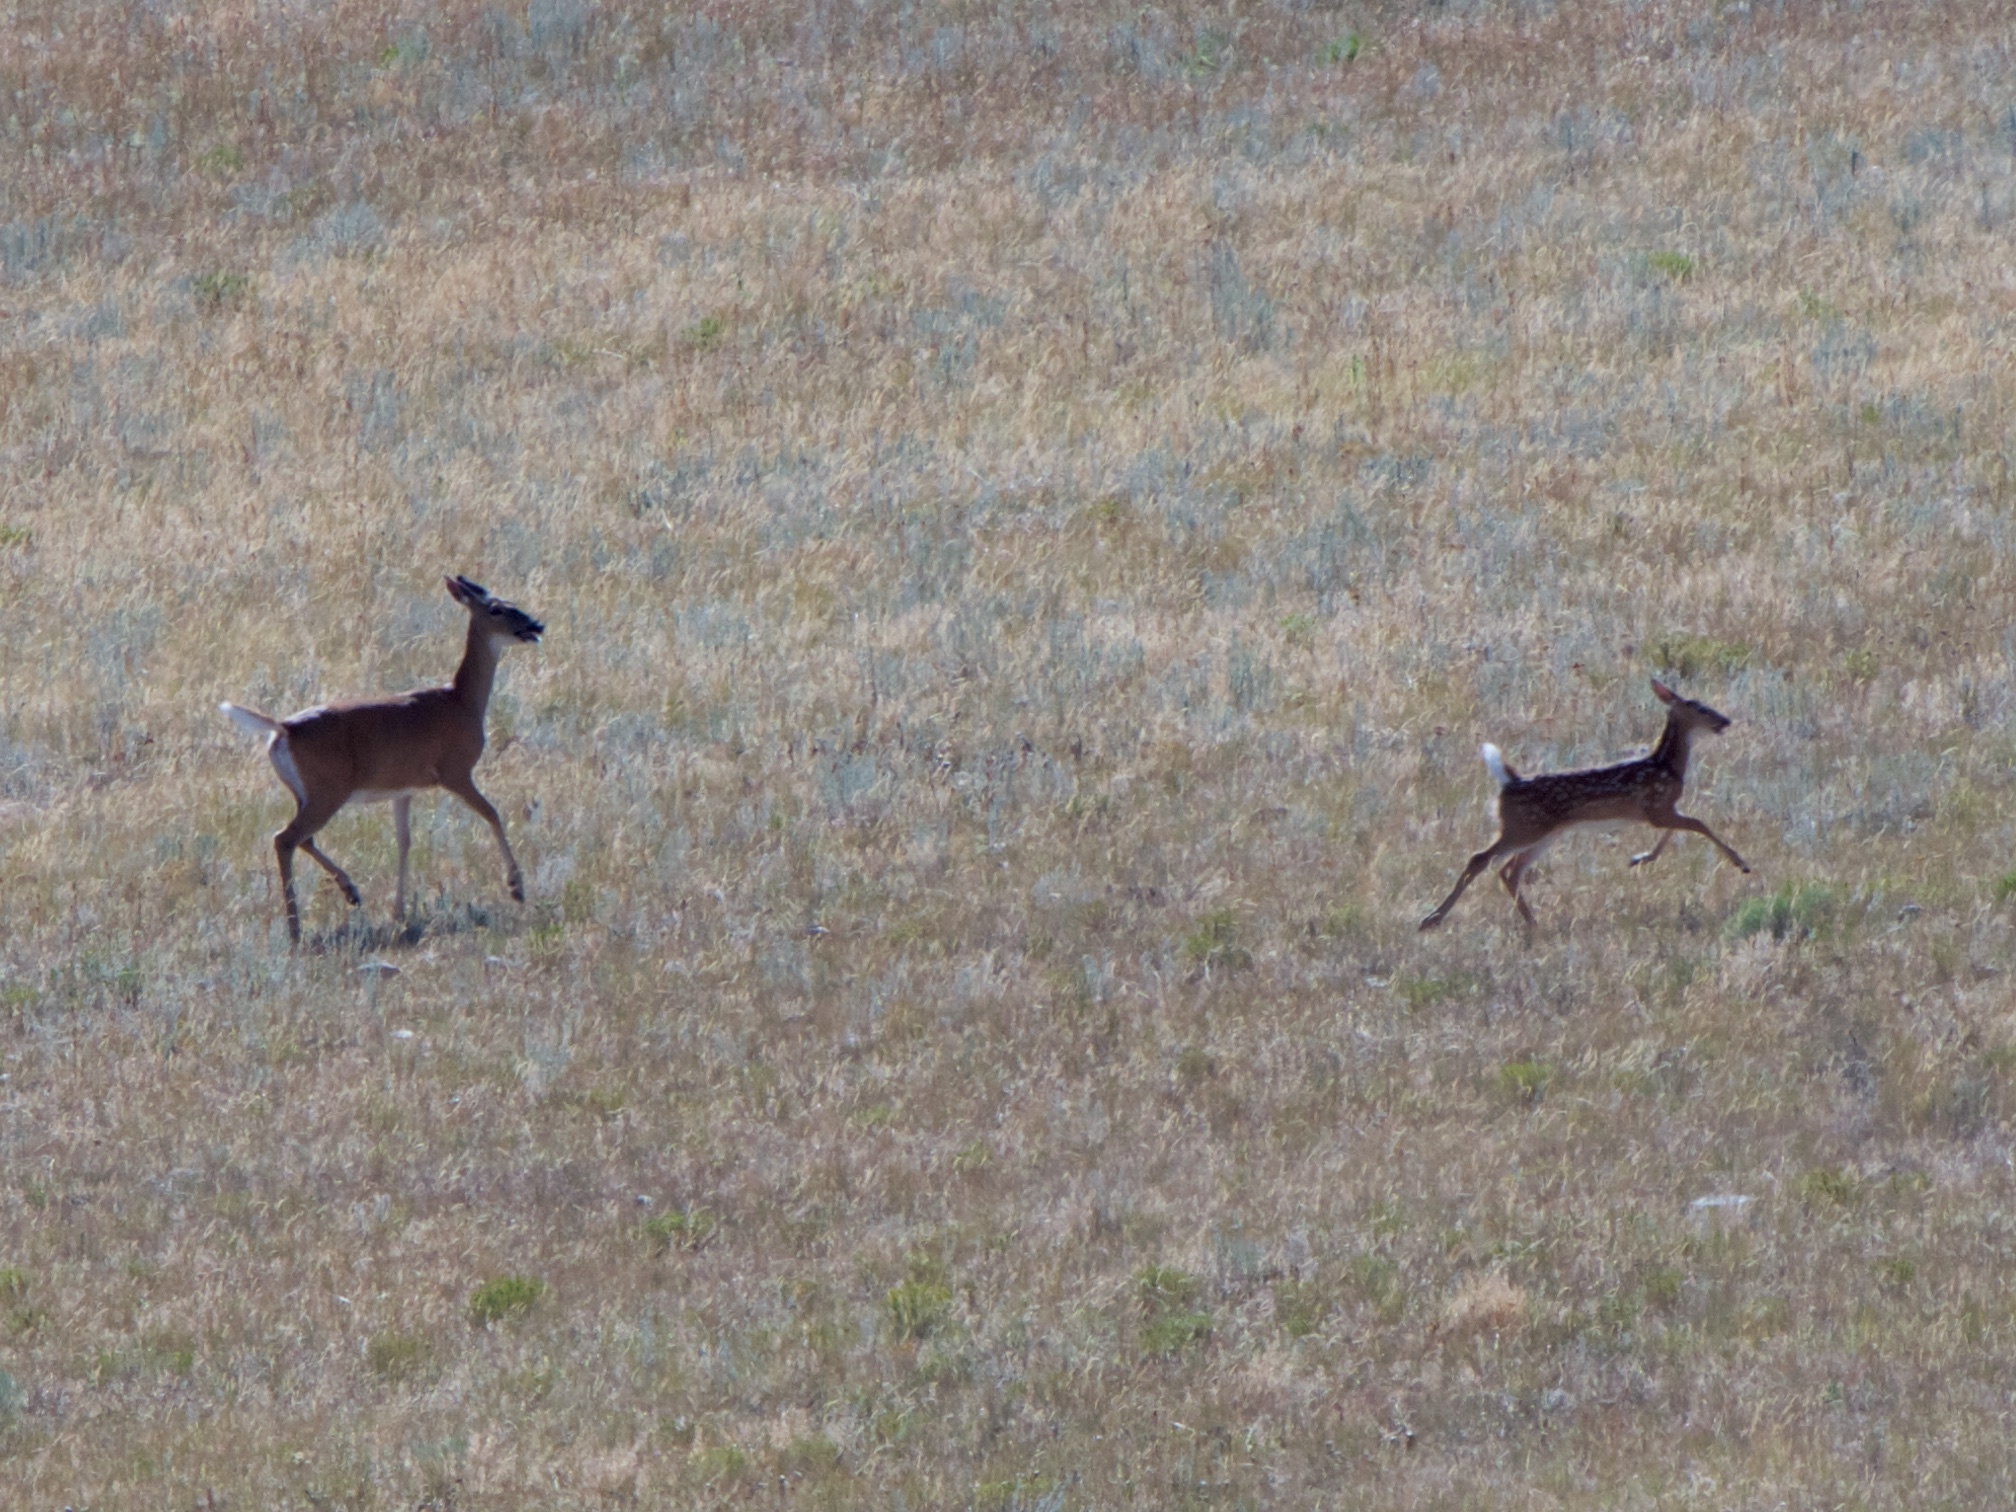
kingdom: Animalia
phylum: Chordata
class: Mammalia
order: Artiodactyla
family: Cervidae
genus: Odocoileus
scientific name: Odocoileus virginianus
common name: White-tailed deer
